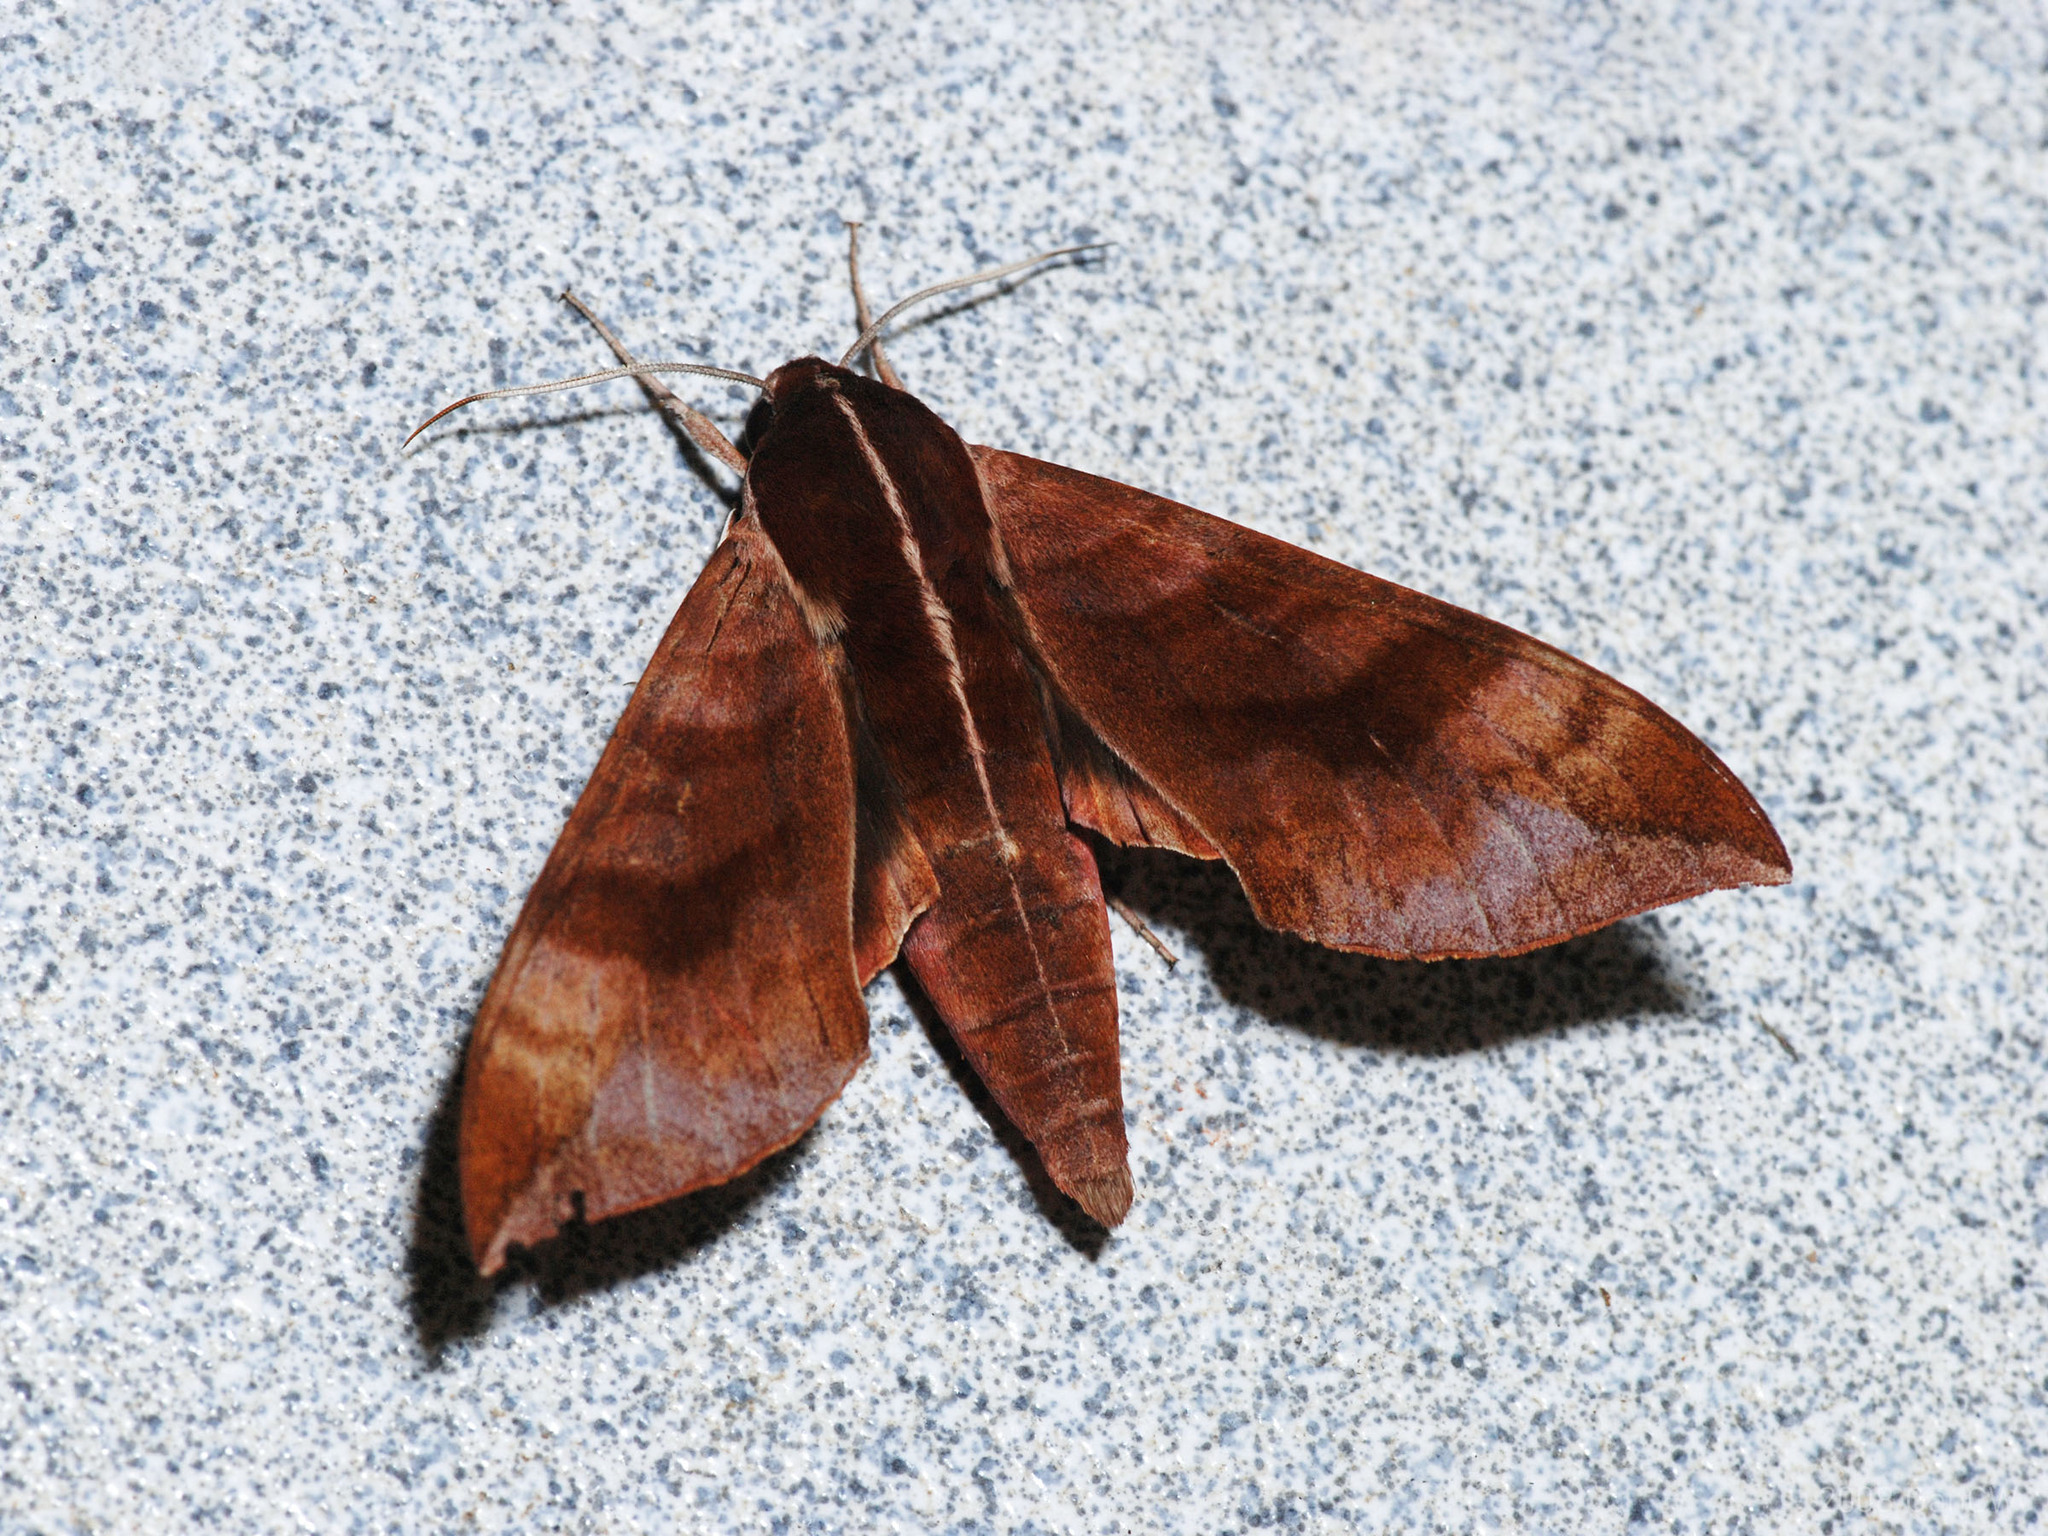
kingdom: Animalia
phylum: Arthropoda
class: Insecta
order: Lepidoptera
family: Sphingidae
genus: Ampelophaga
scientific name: Ampelophaga rubiginosa
